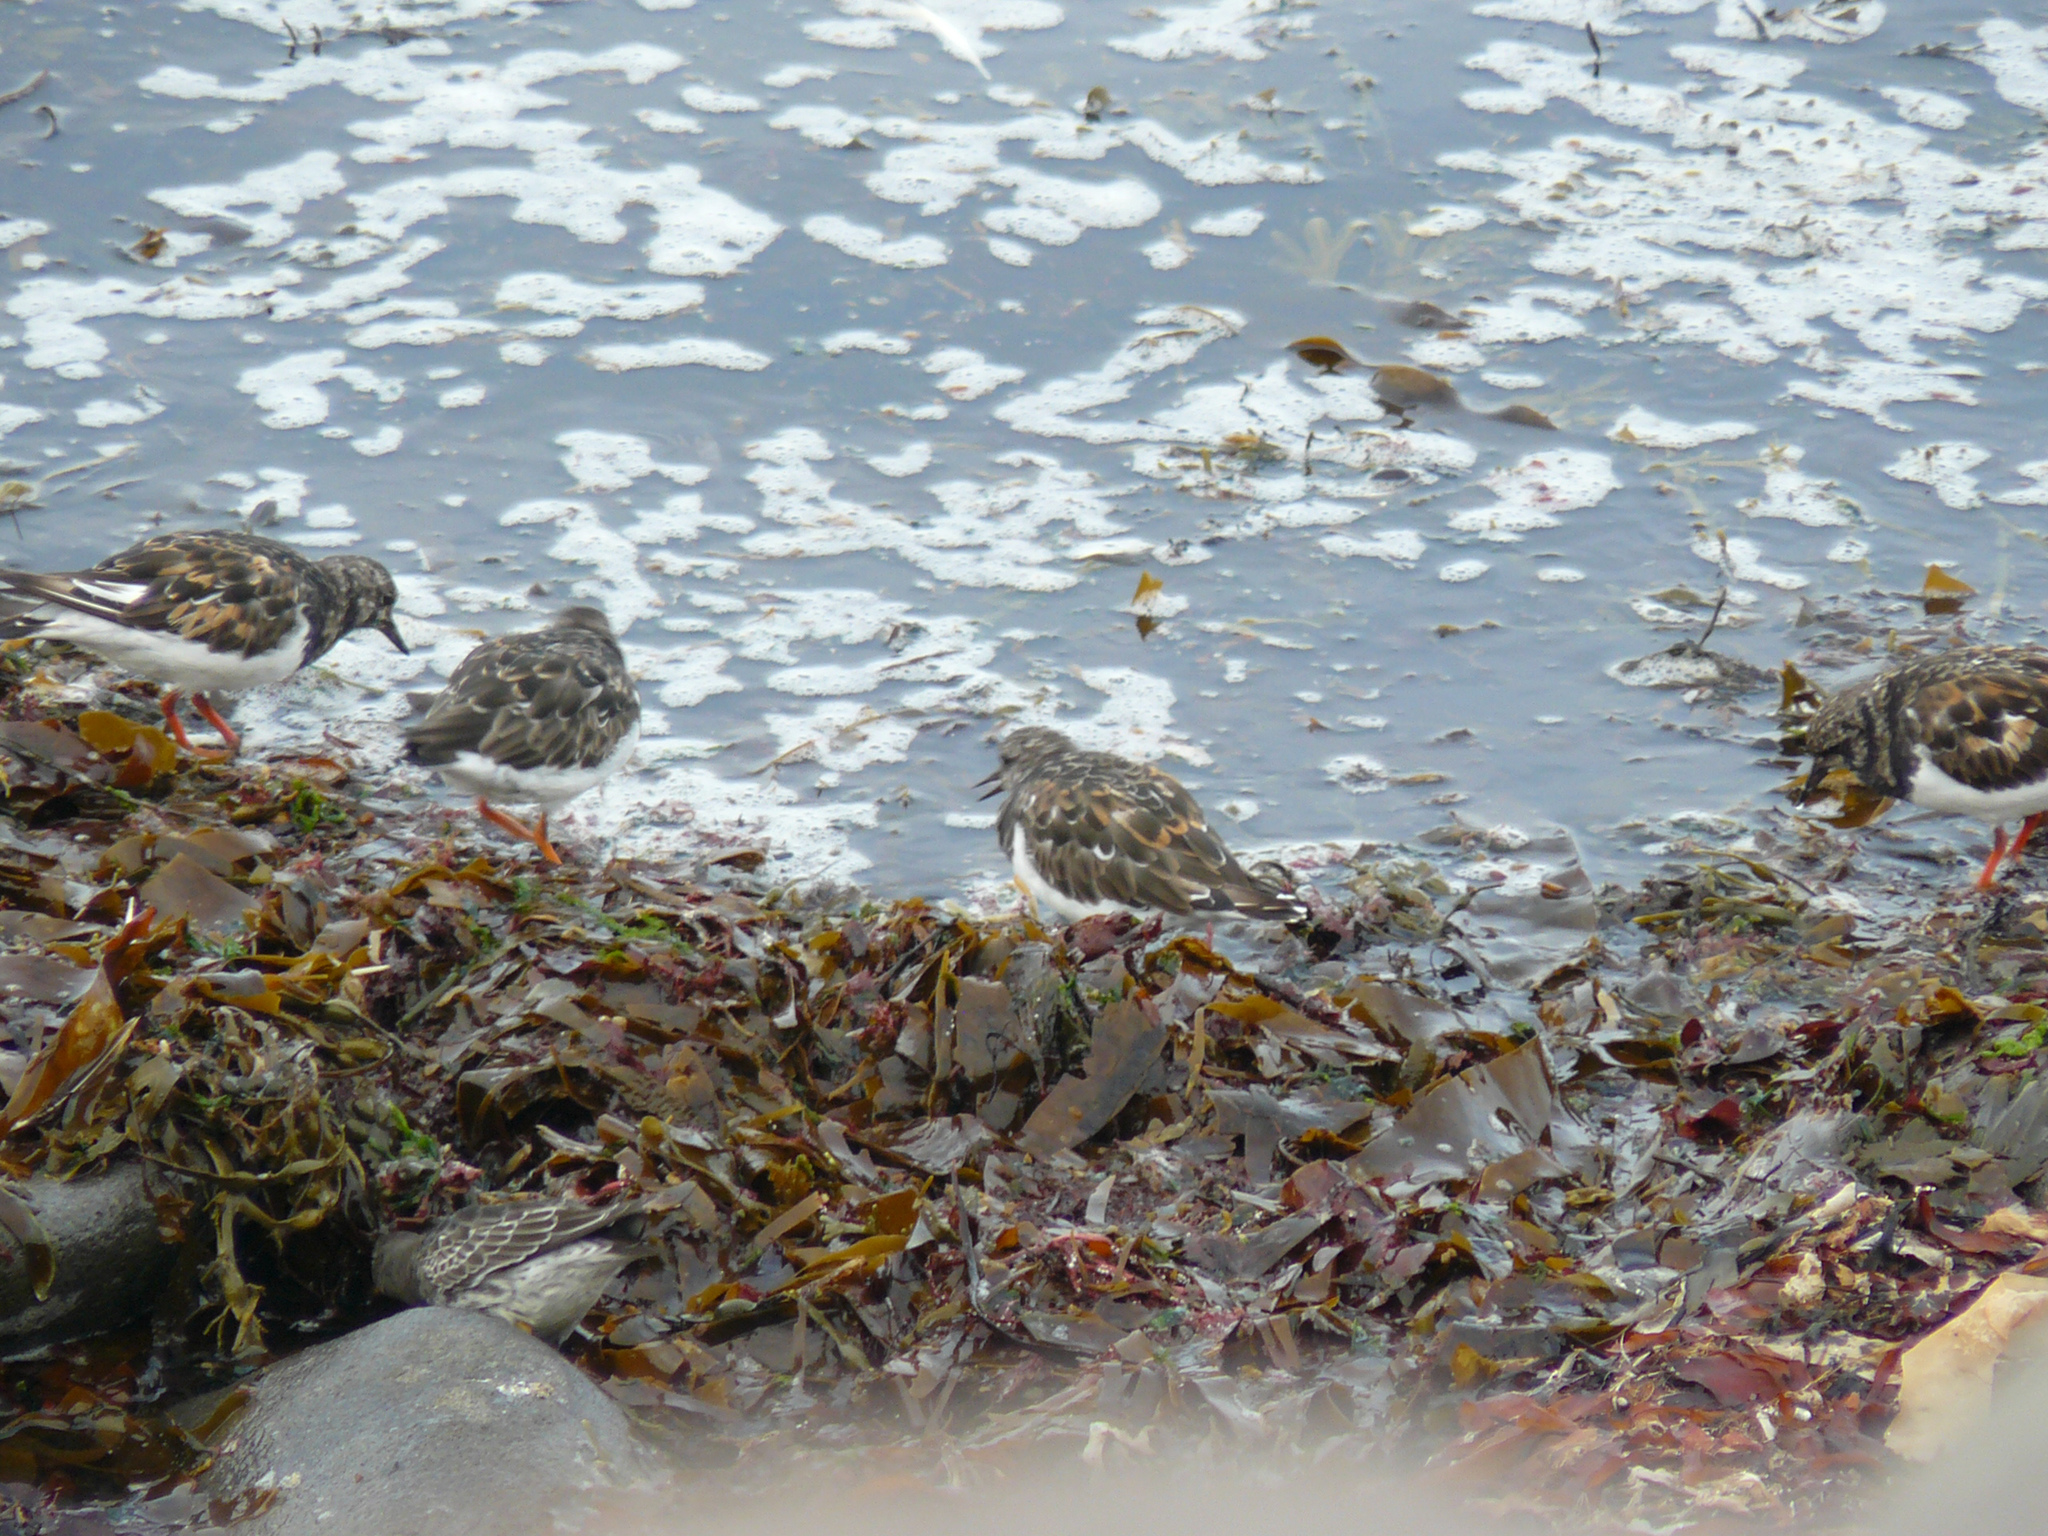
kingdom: Animalia
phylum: Chordata
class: Aves
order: Charadriiformes
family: Scolopacidae
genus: Arenaria
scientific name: Arenaria interpres
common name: Ruddy turnstone
